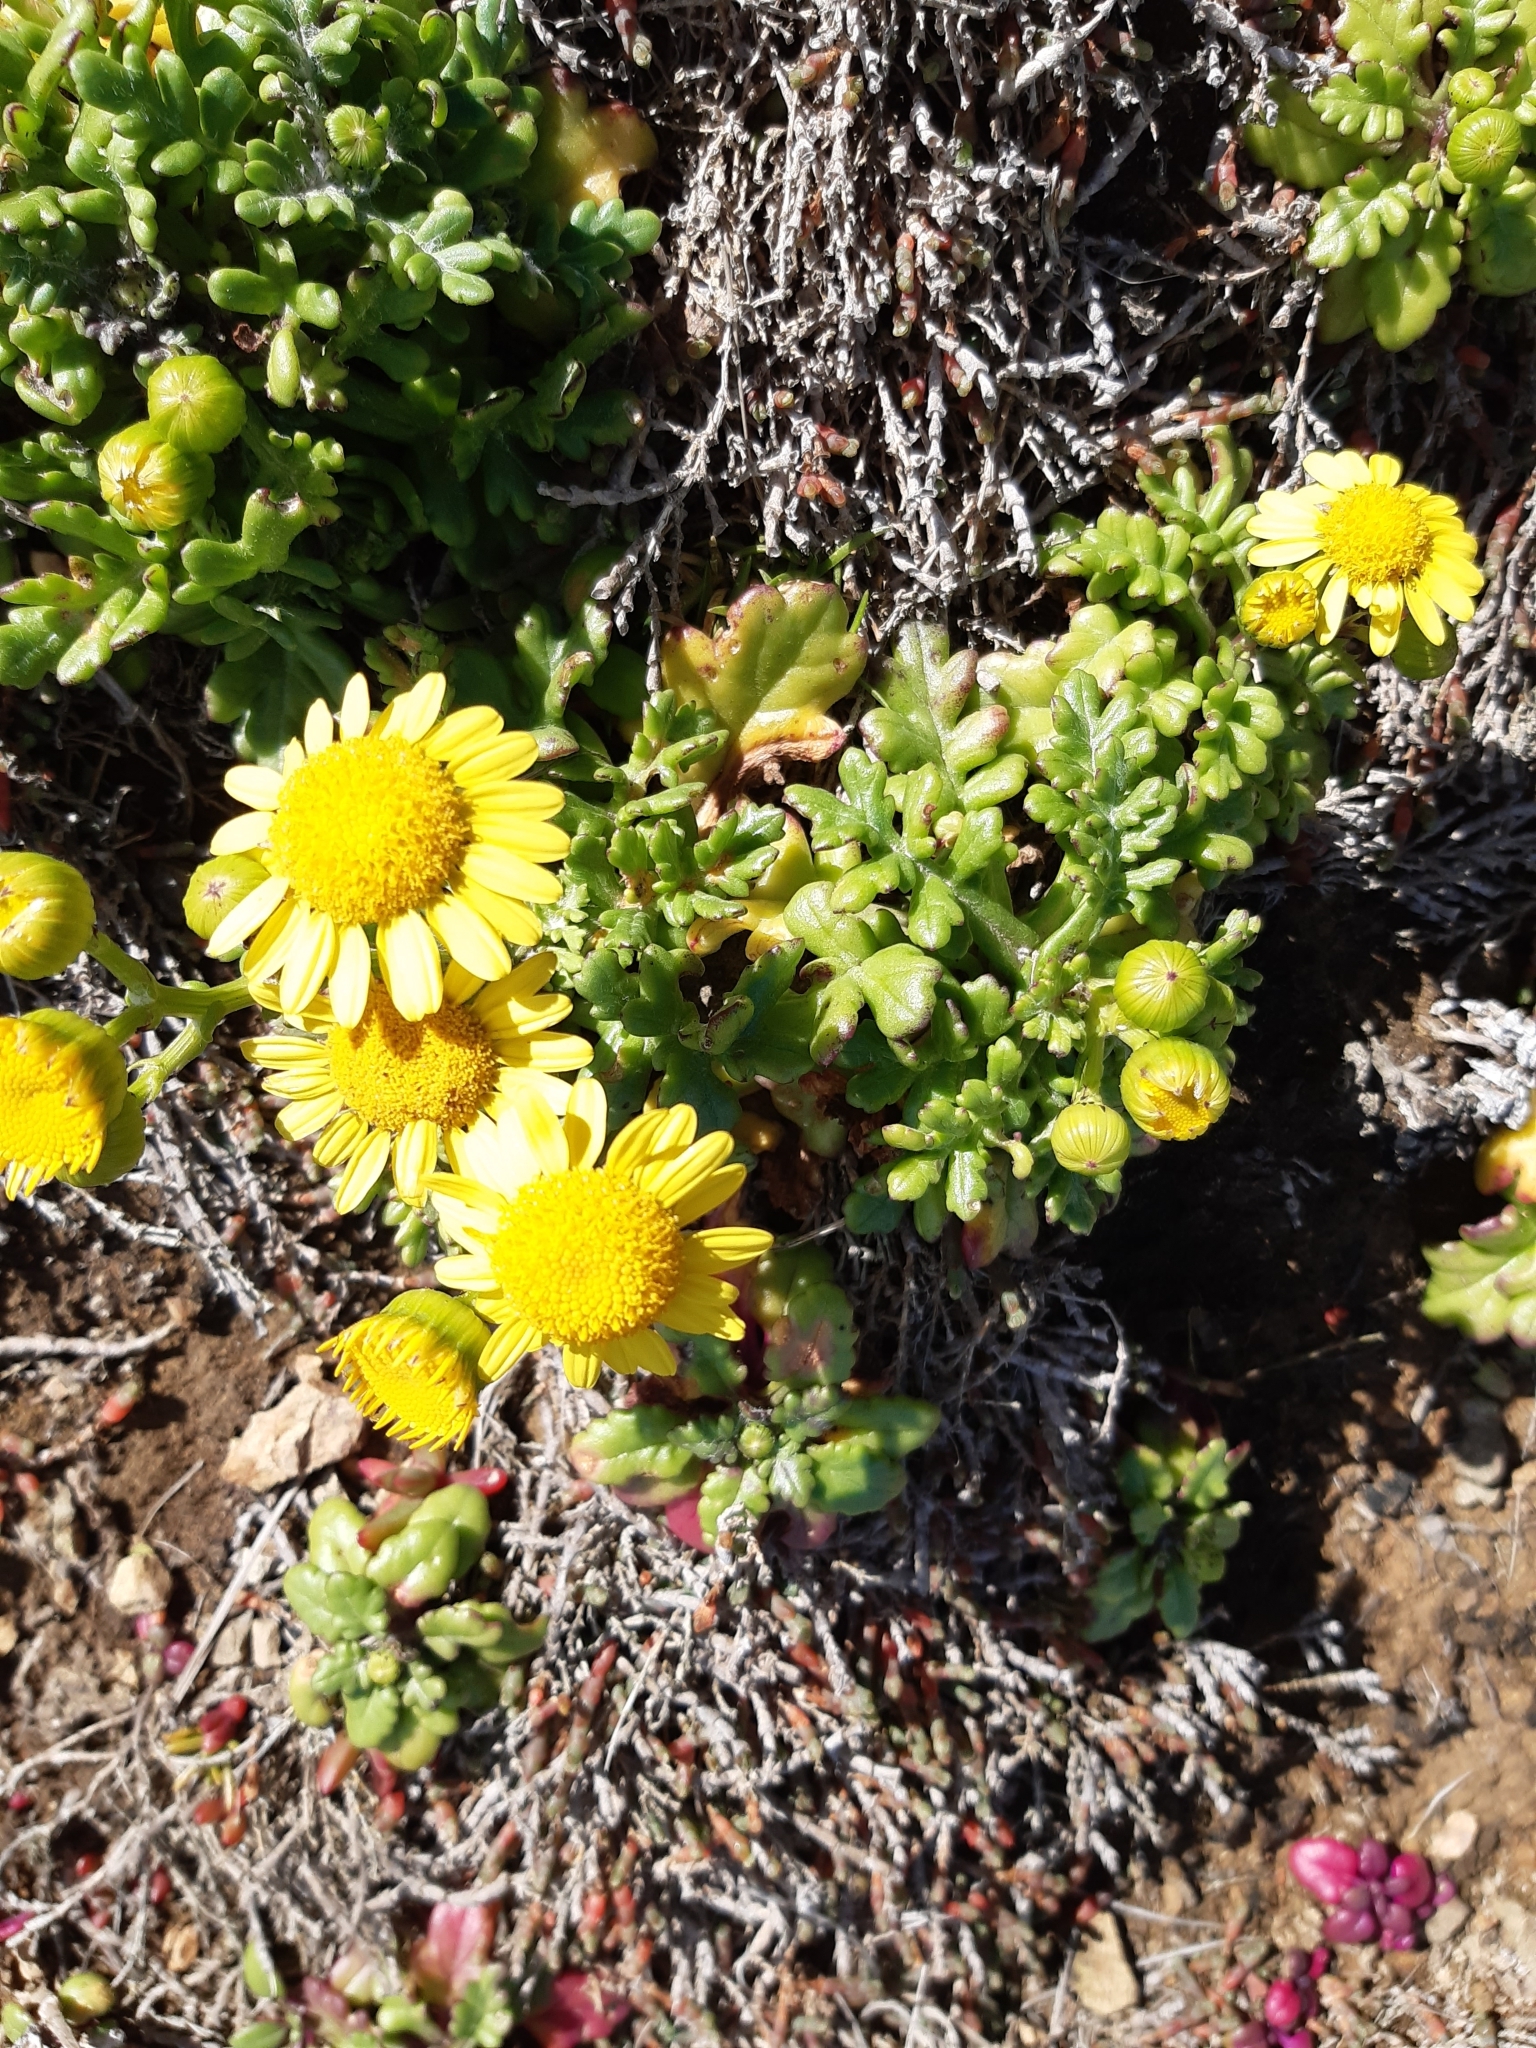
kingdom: Plantae
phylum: Tracheophyta
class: Magnoliopsida
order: Asterales
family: Asteraceae
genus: Senecio
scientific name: Senecio lautus
